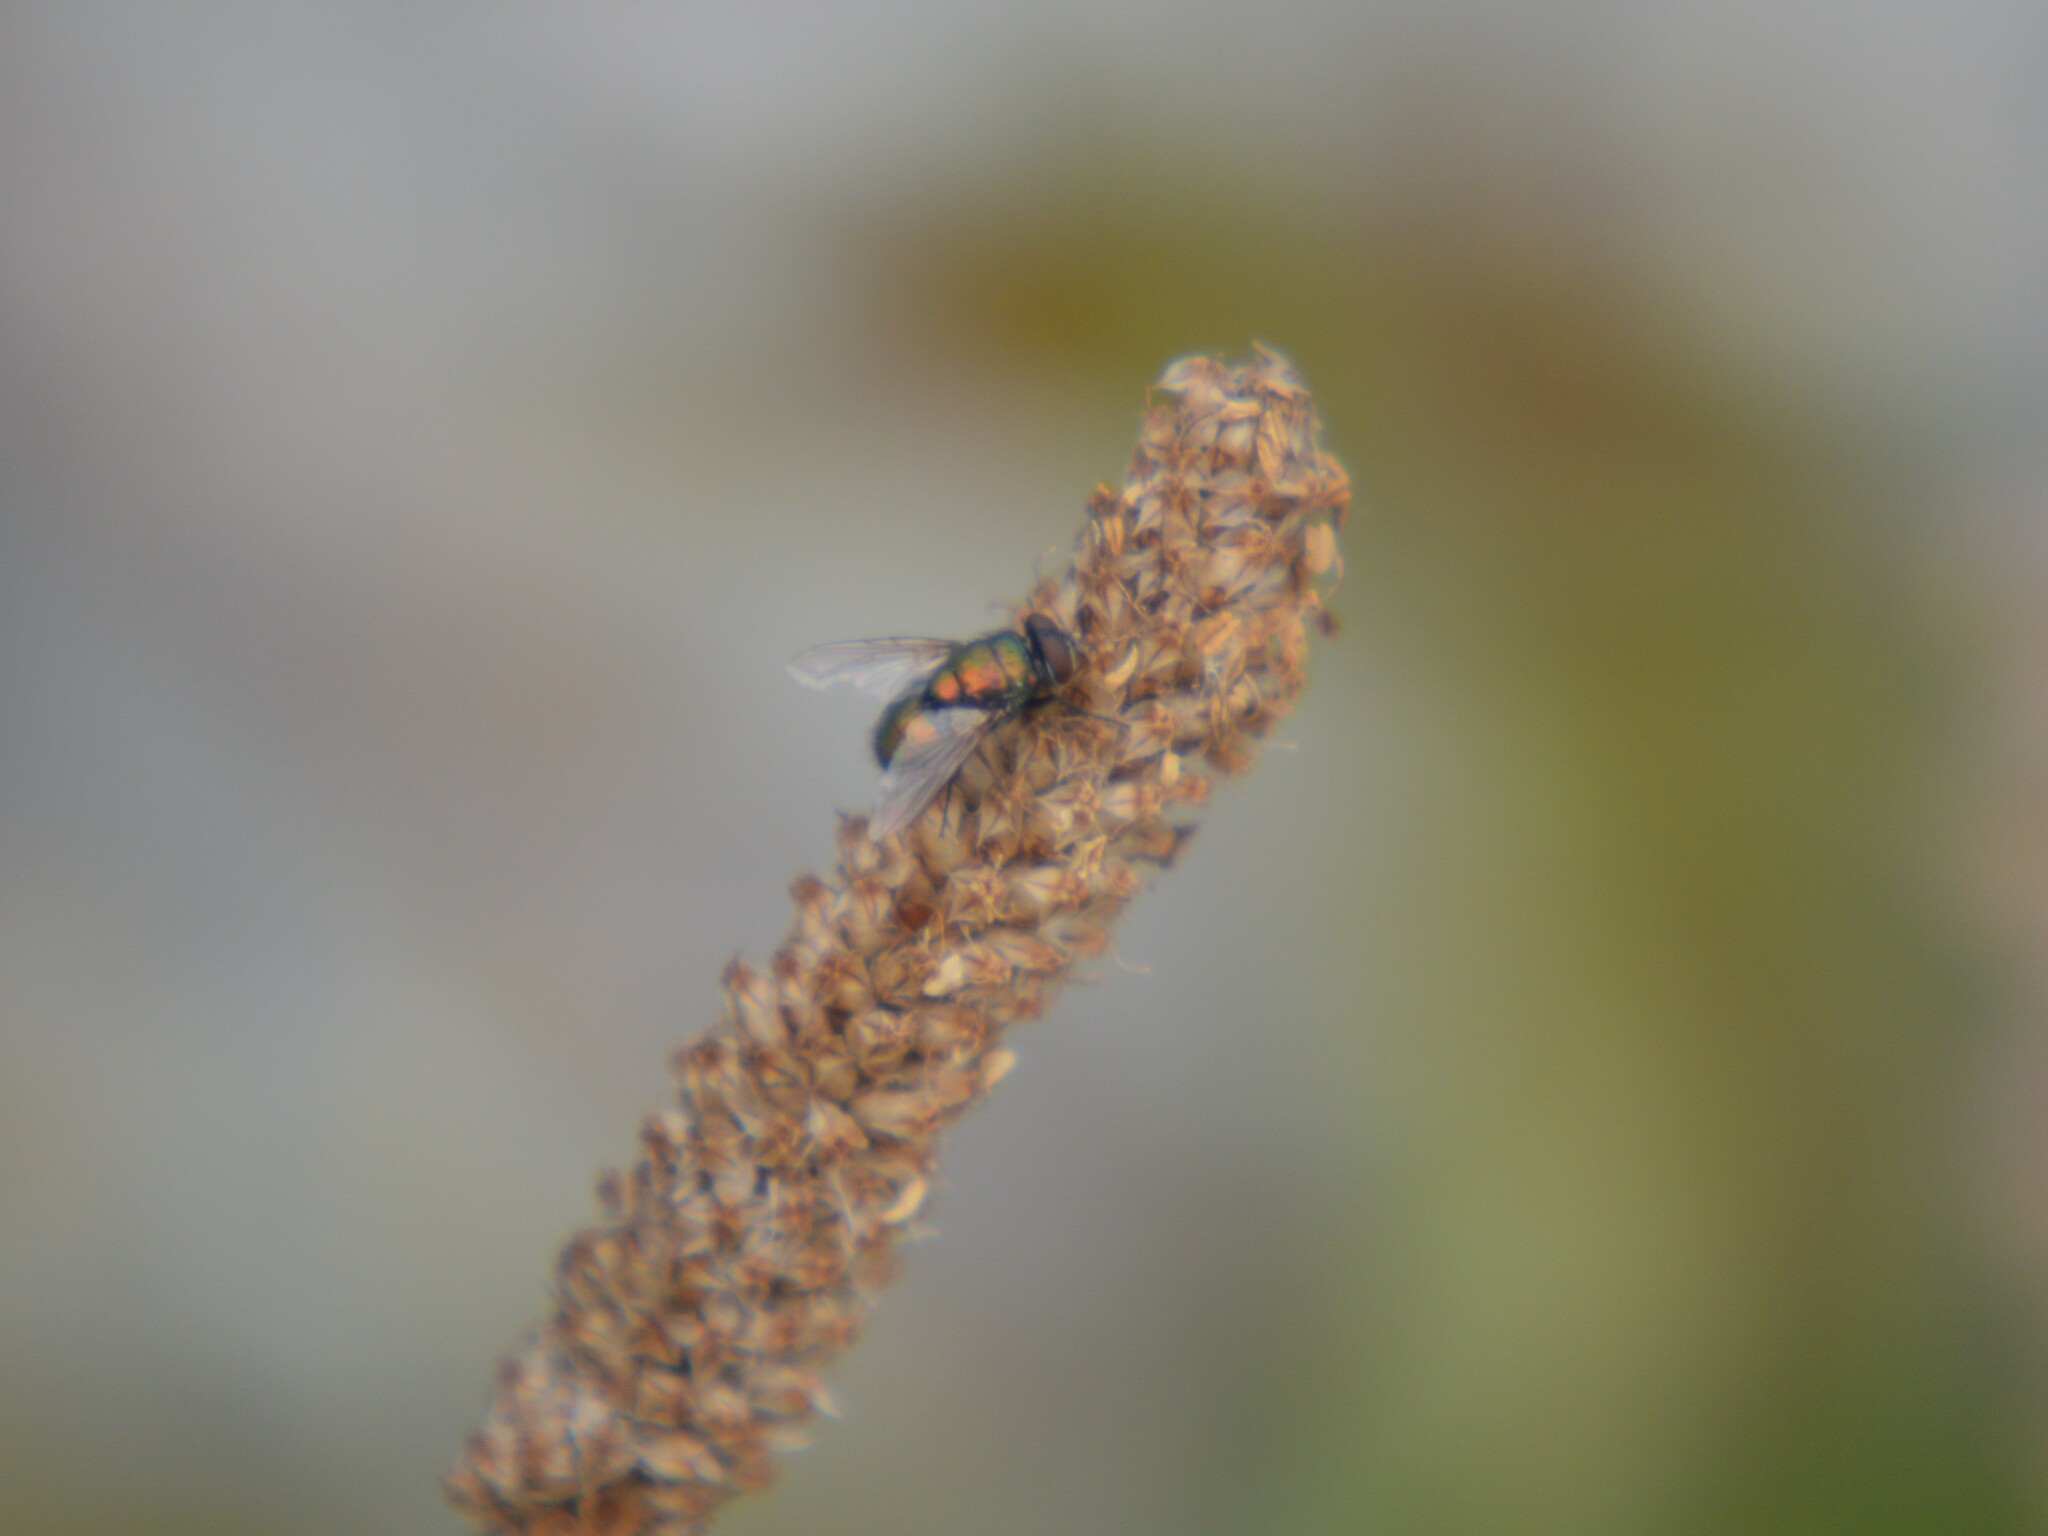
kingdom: Animalia
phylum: Arthropoda
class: Insecta
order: Diptera
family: Calliphoridae
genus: Lucilia
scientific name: Lucilia
